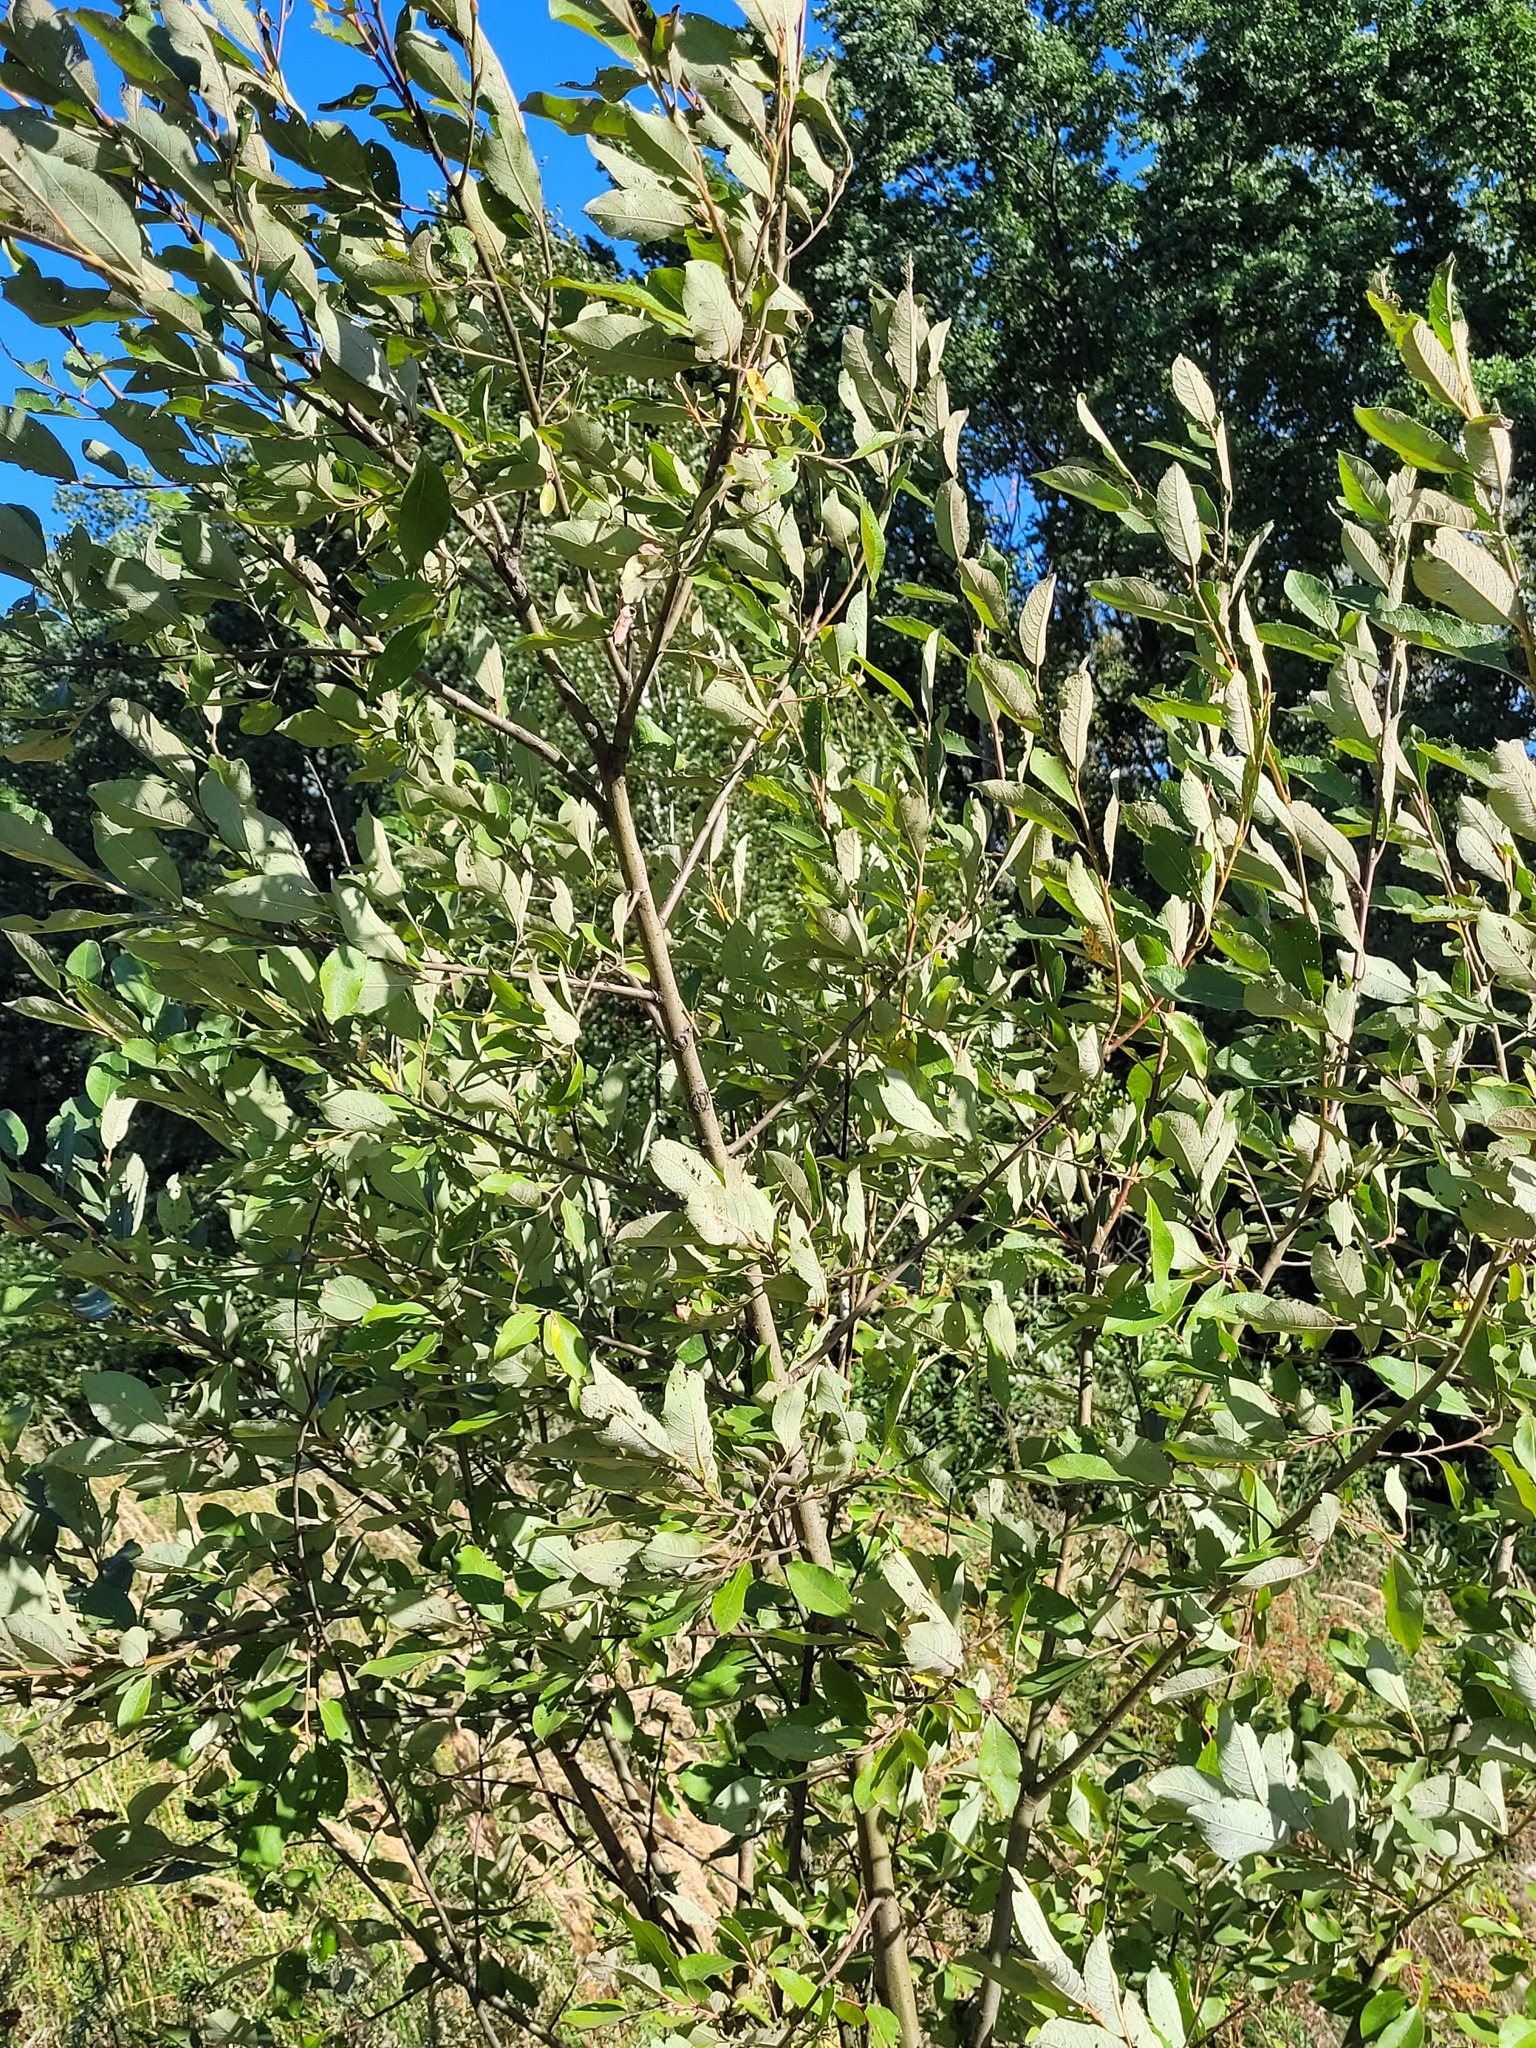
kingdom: Plantae
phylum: Tracheophyta
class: Magnoliopsida
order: Malpighiales
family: Salicaceae
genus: Salix
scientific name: Salix caprea
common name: Goat willow
